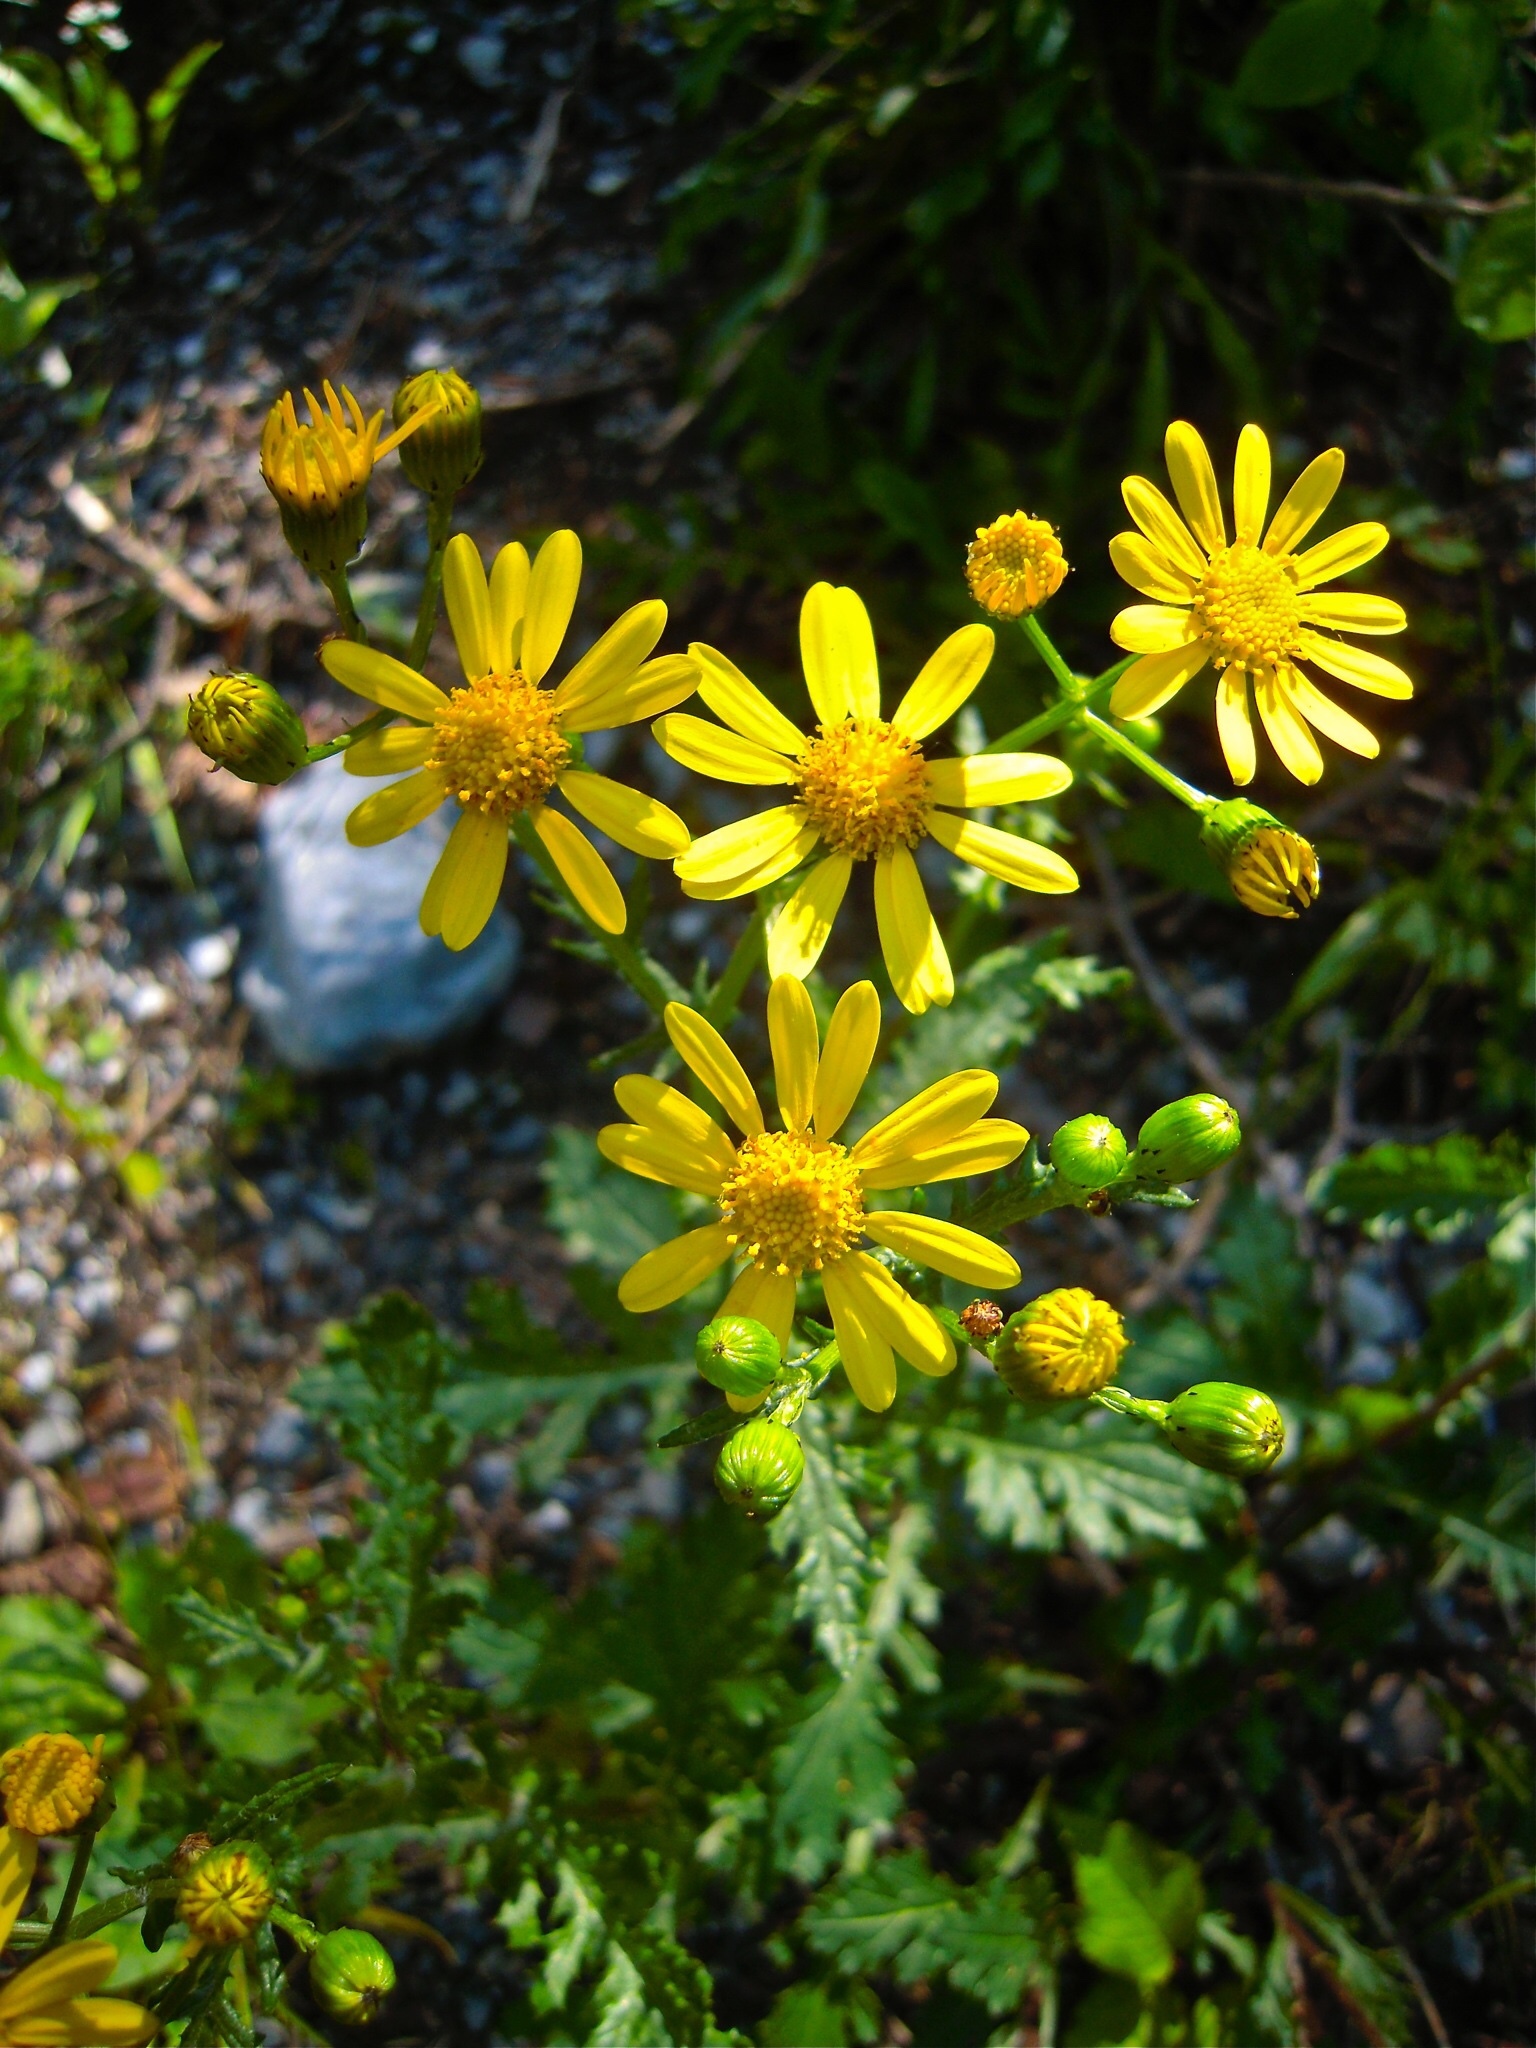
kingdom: Plantae
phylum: Tracheophyta
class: Magnoliopsida
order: Asterales
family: Asteraceae
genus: Senecio
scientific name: Senecio rupestris
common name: Rock ragwort
